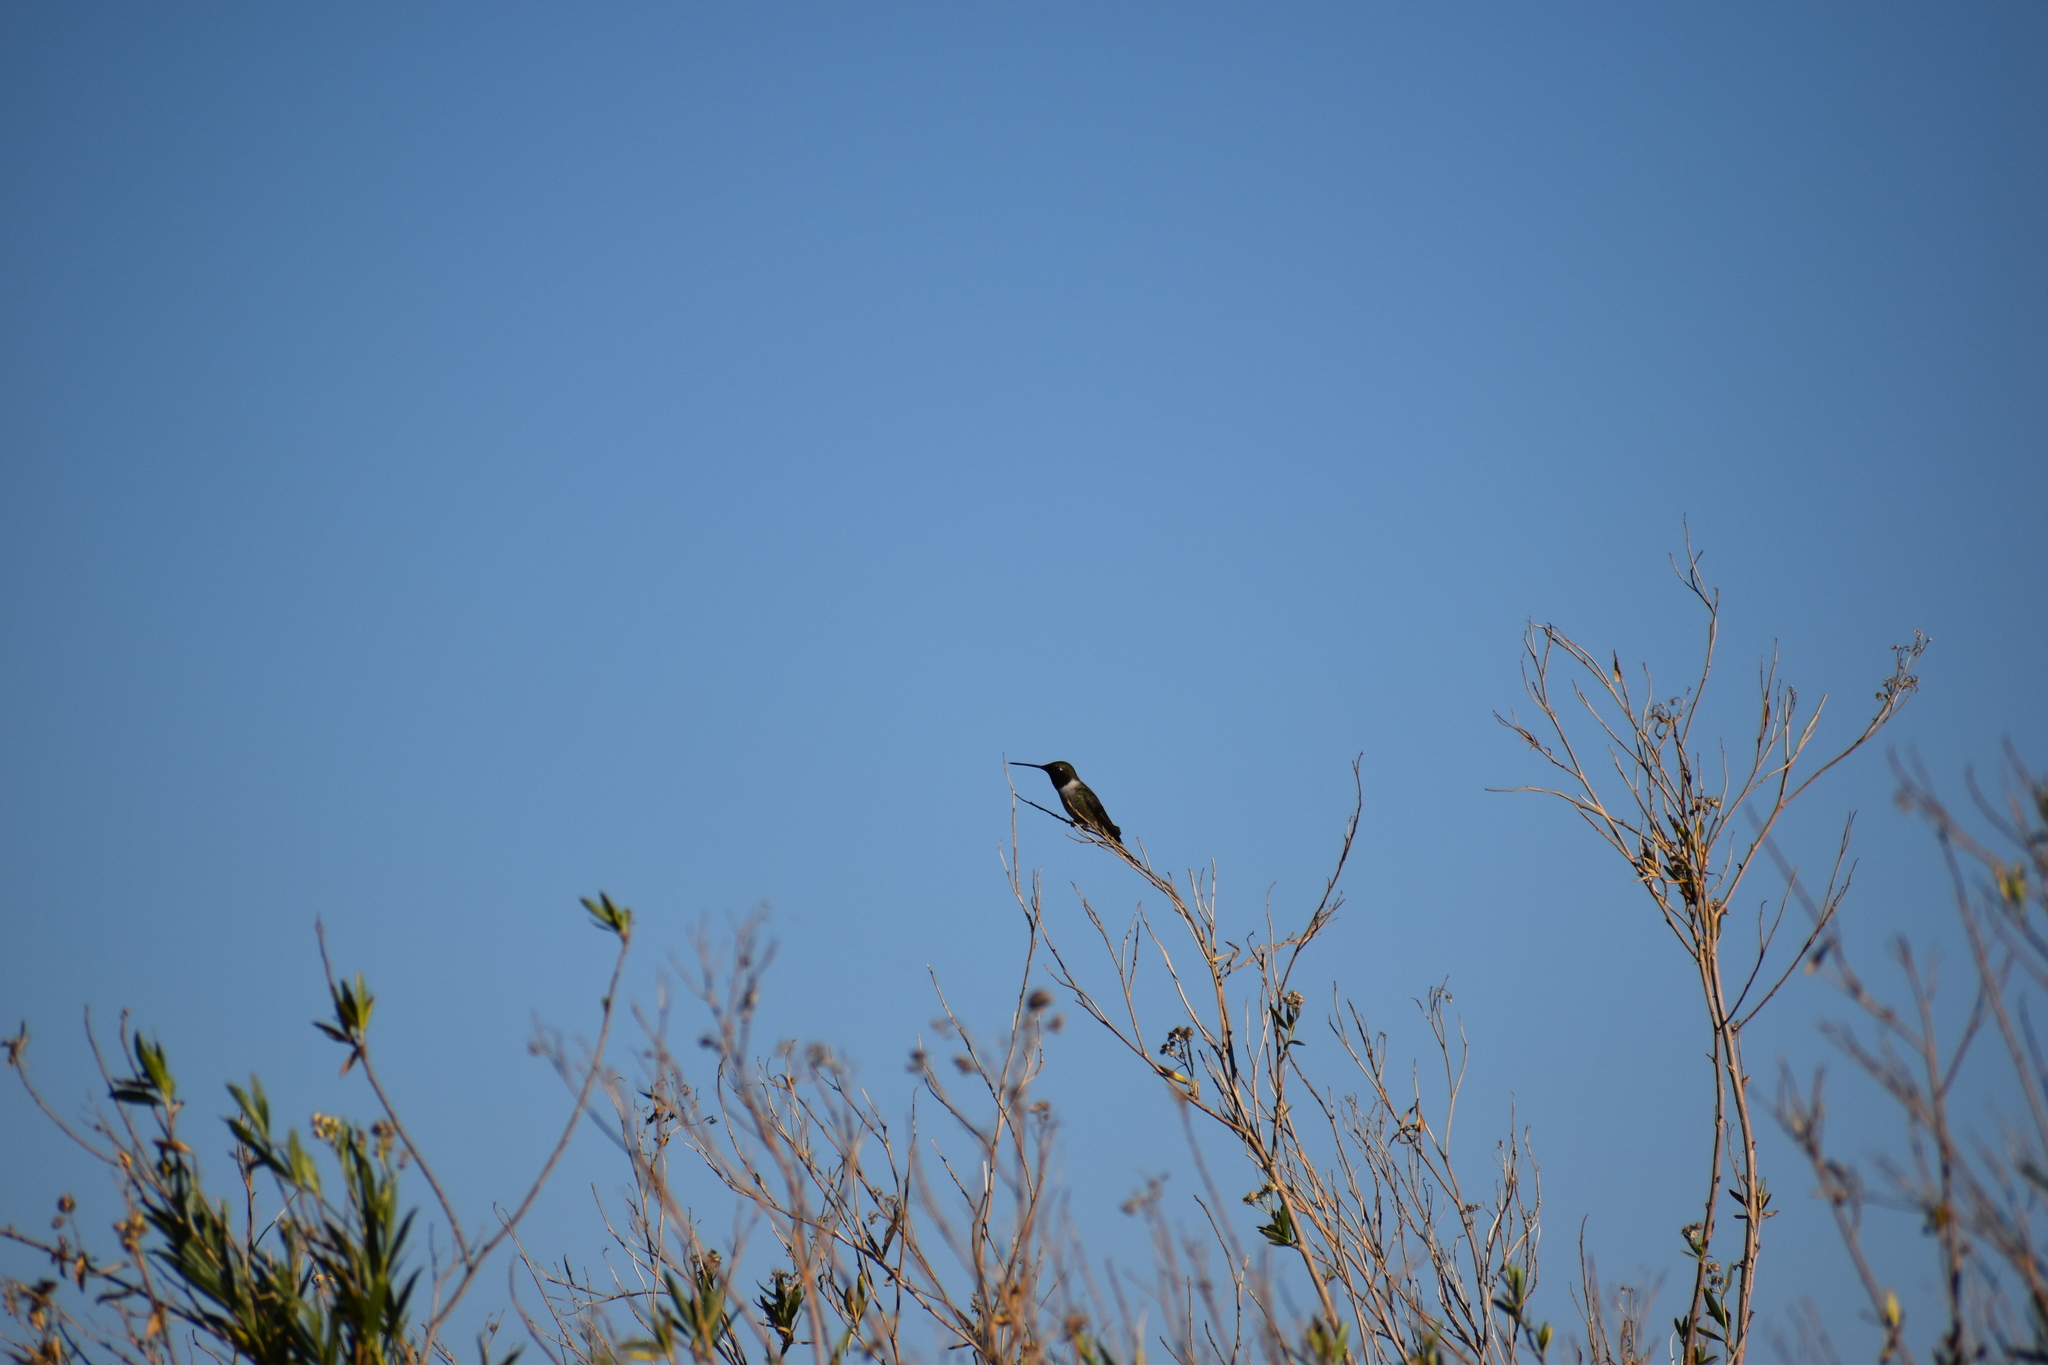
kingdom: Animalia
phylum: Chordata
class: Aves
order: Apodiformes
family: Trochilidae
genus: Archilochus
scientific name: Archilochus alexandri
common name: Black-chinned hummingbird
